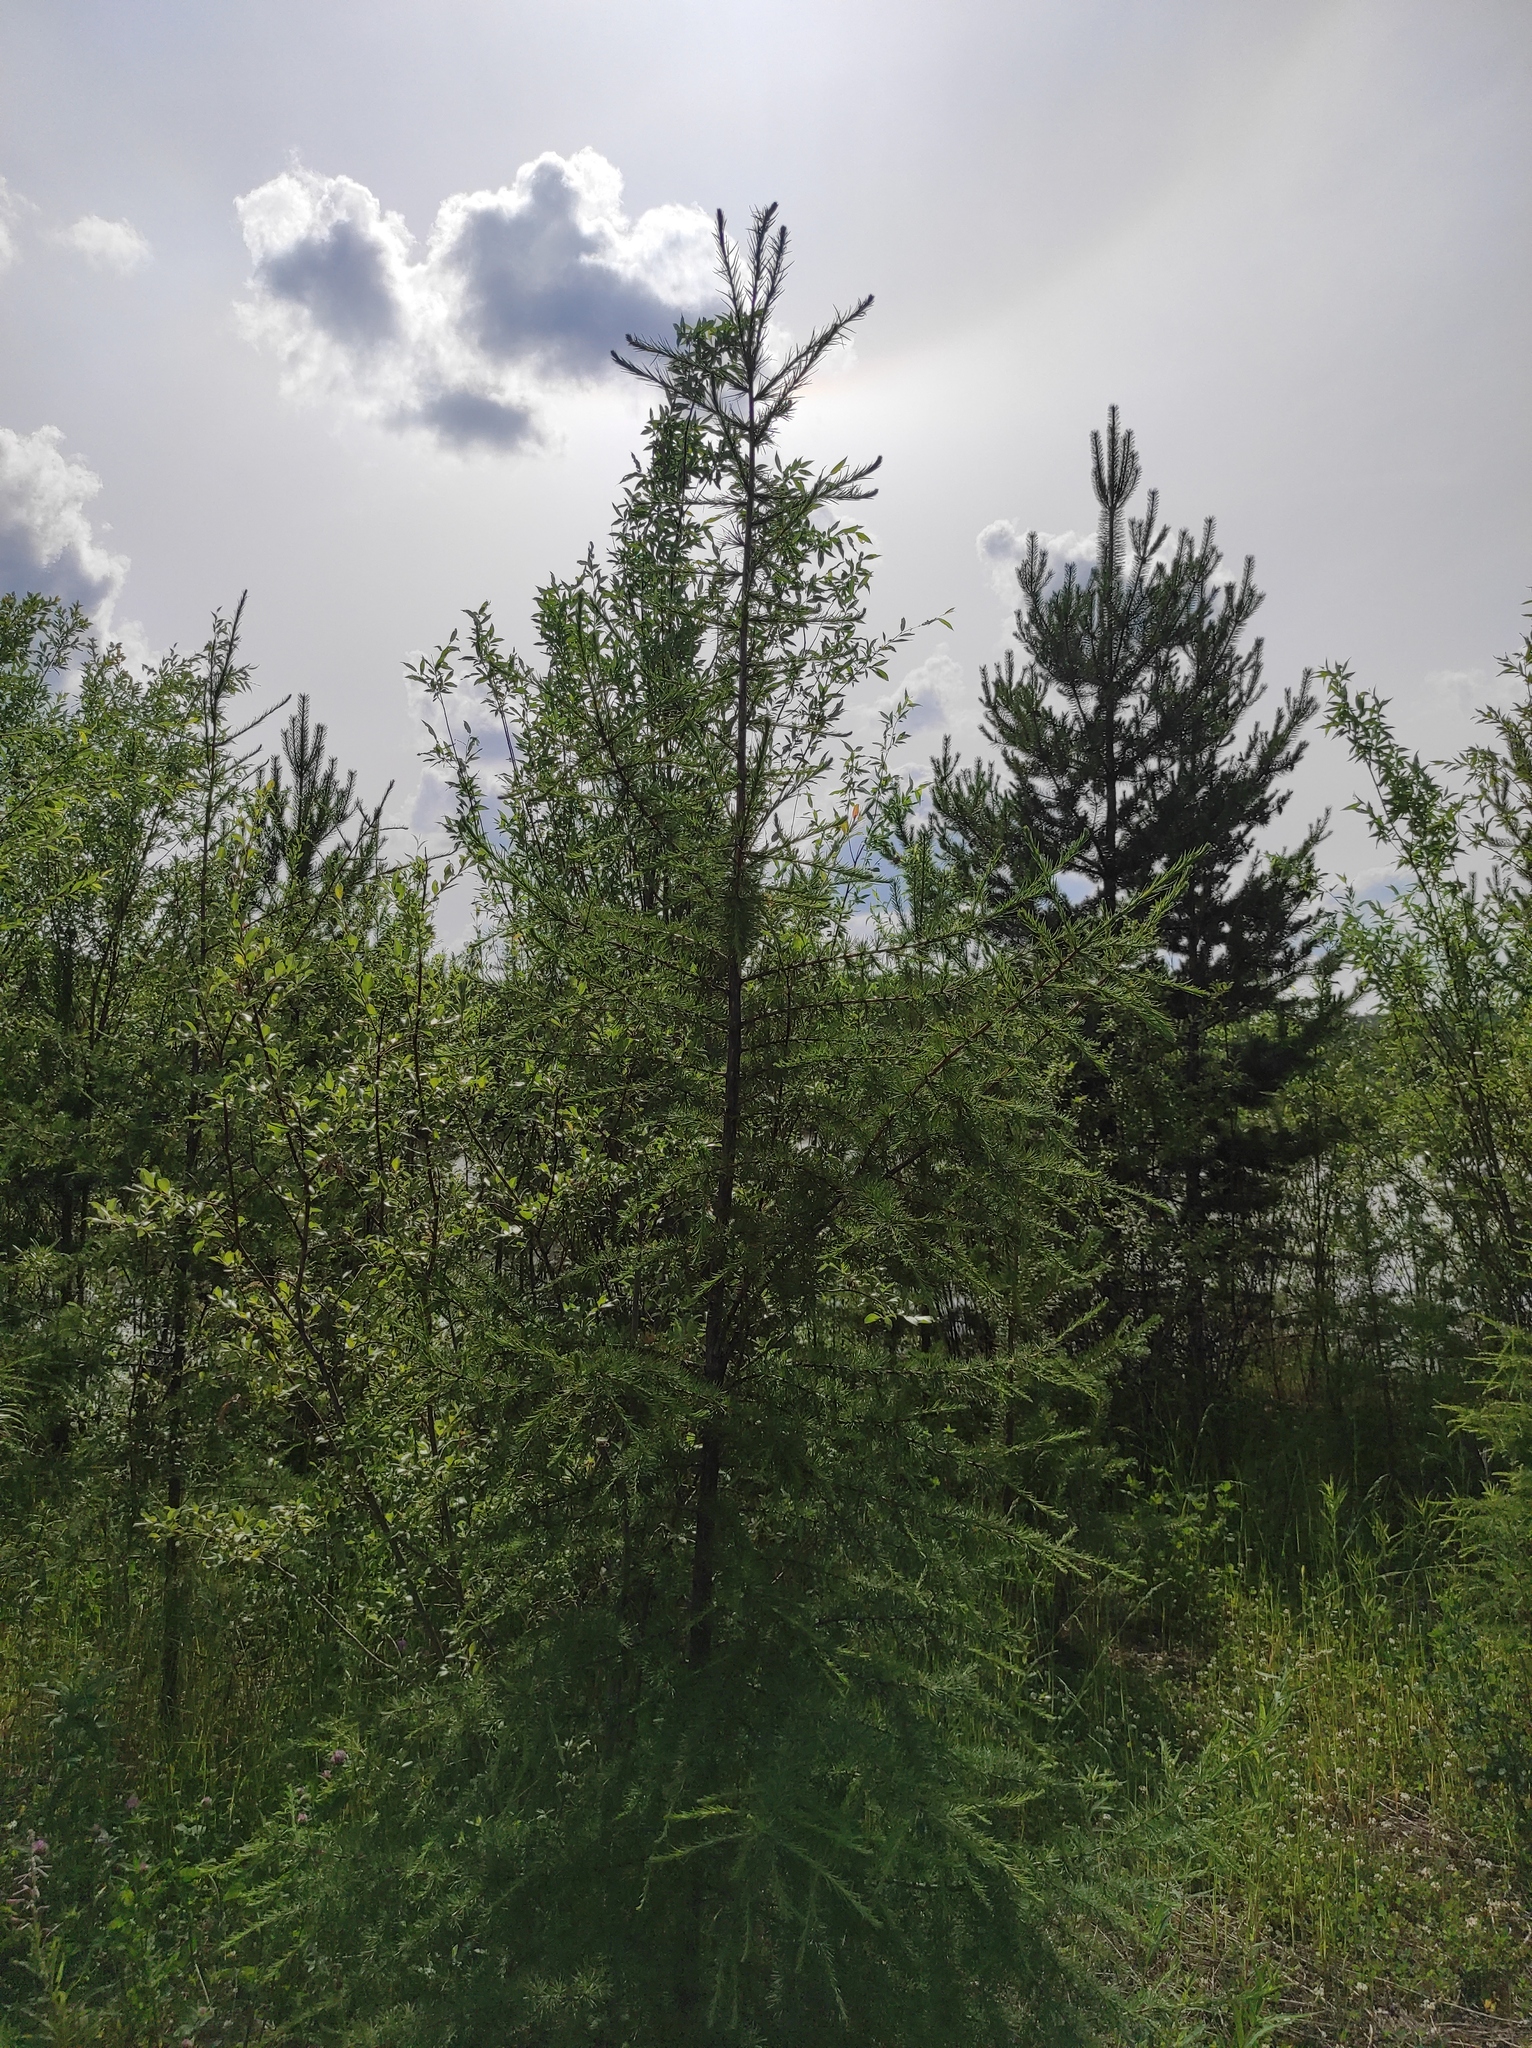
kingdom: Plantae
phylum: Tracheophyta
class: Pinopsida
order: Pinales
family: Pinaceae
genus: Pinus
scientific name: Pinus sylvestris
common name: Scots pine
